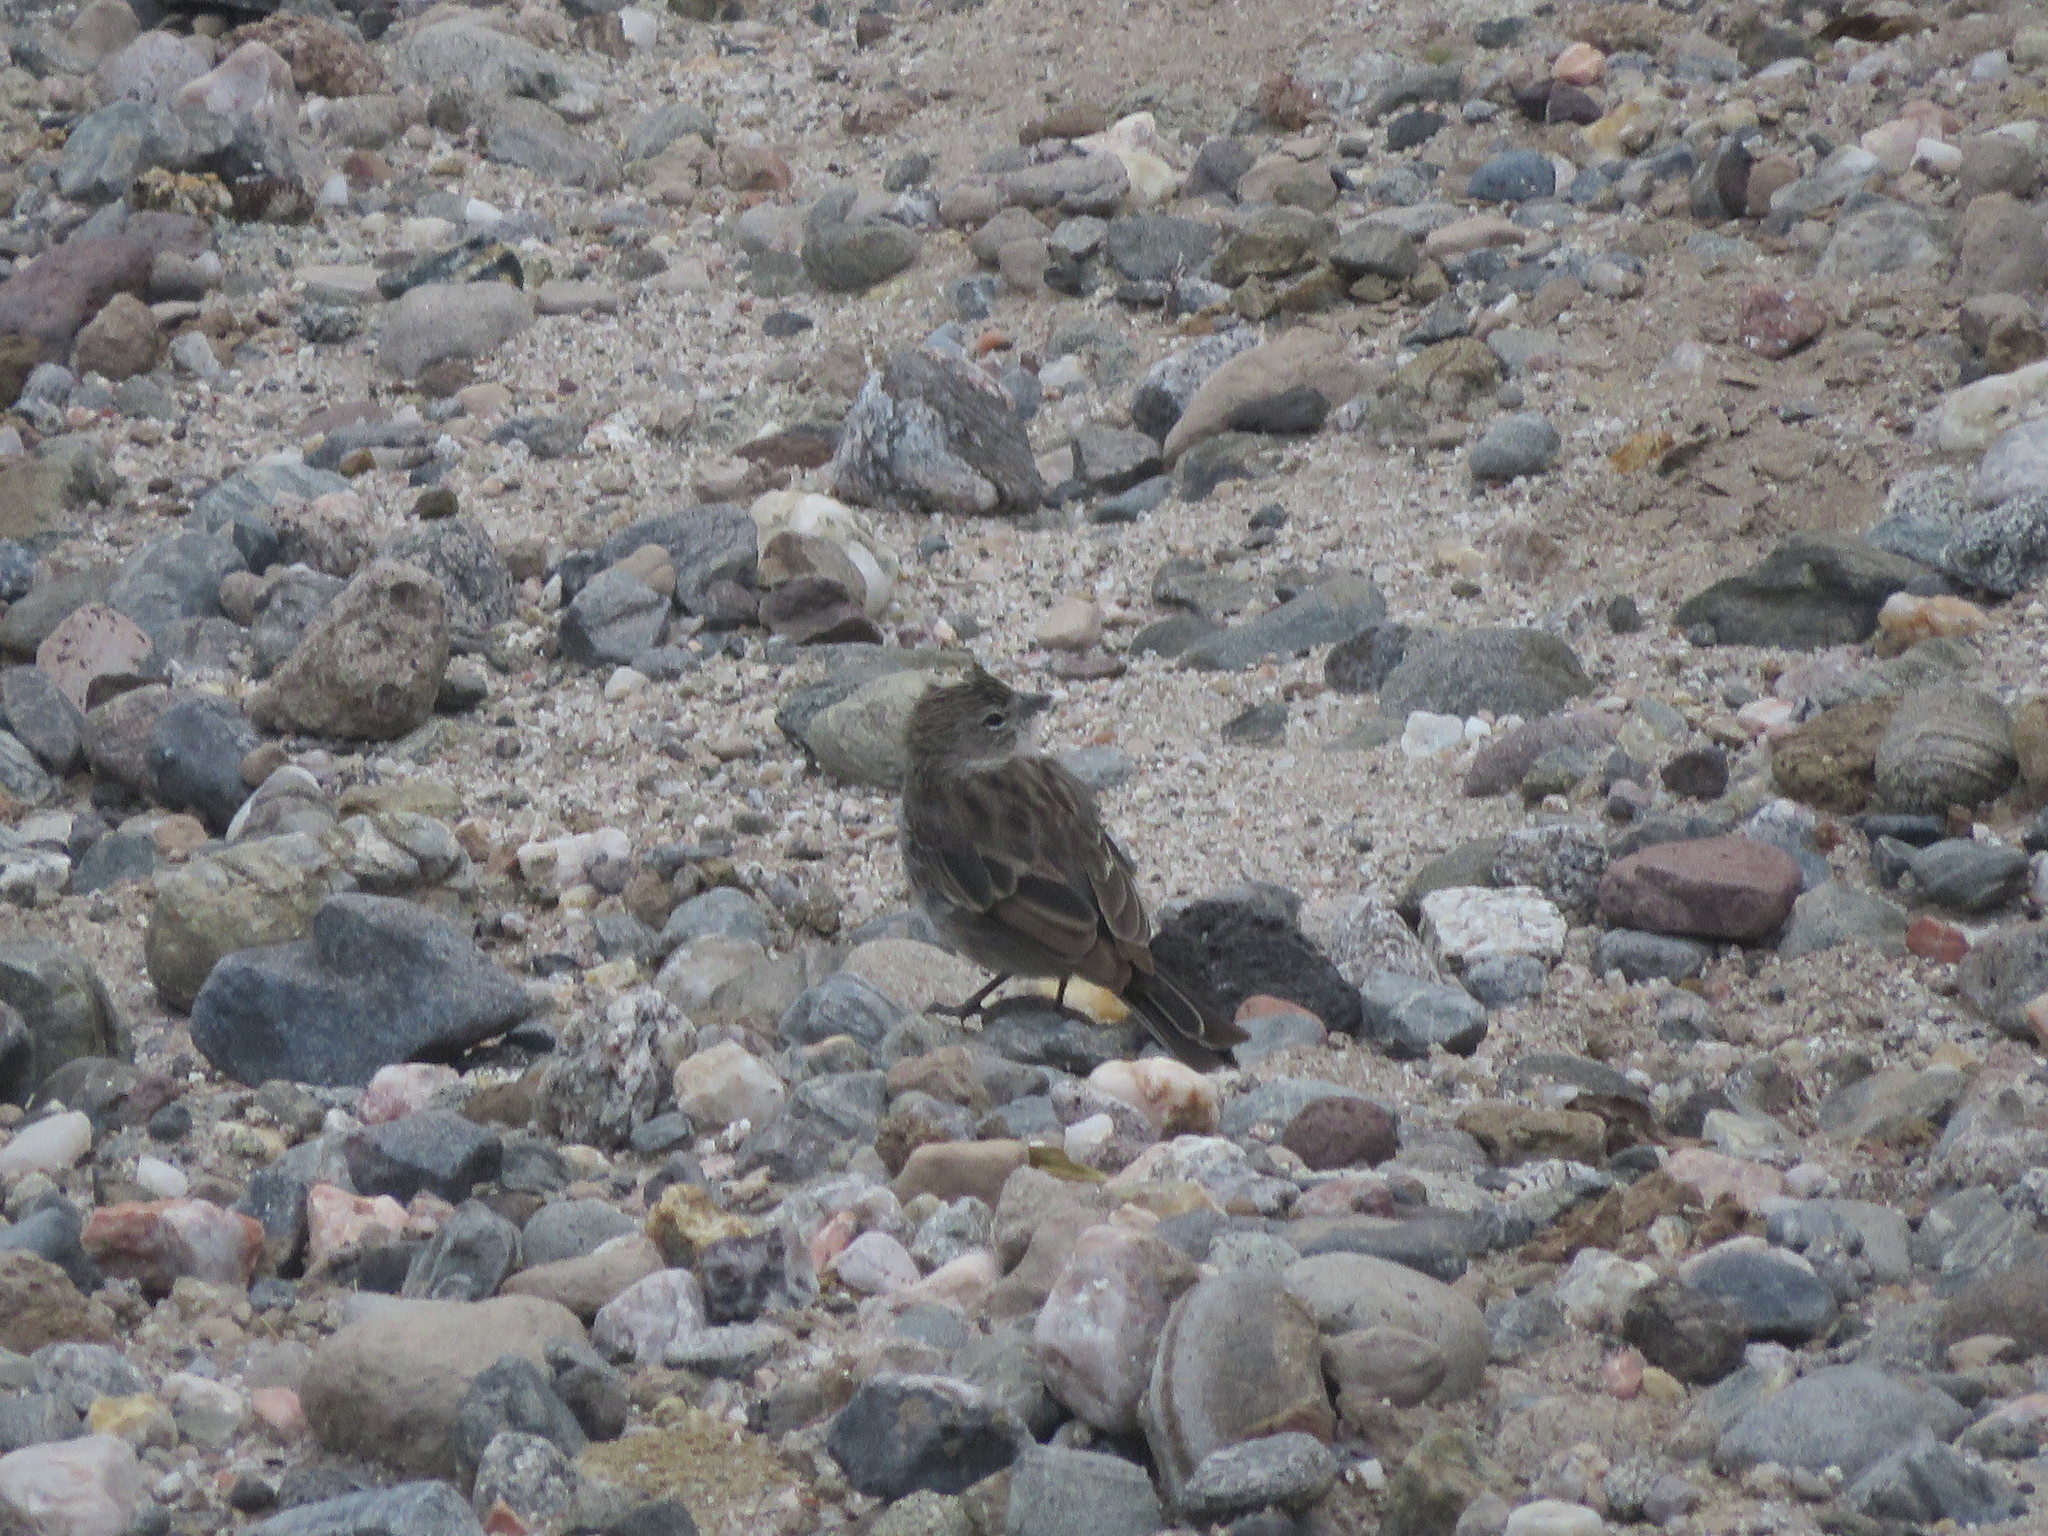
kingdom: Animalia
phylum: Chordata
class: Aves
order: Passeriformes
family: Thraupidae
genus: Geospizopsis
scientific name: Geospizopsis plebejus
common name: Ash-breasted sierra-finch
